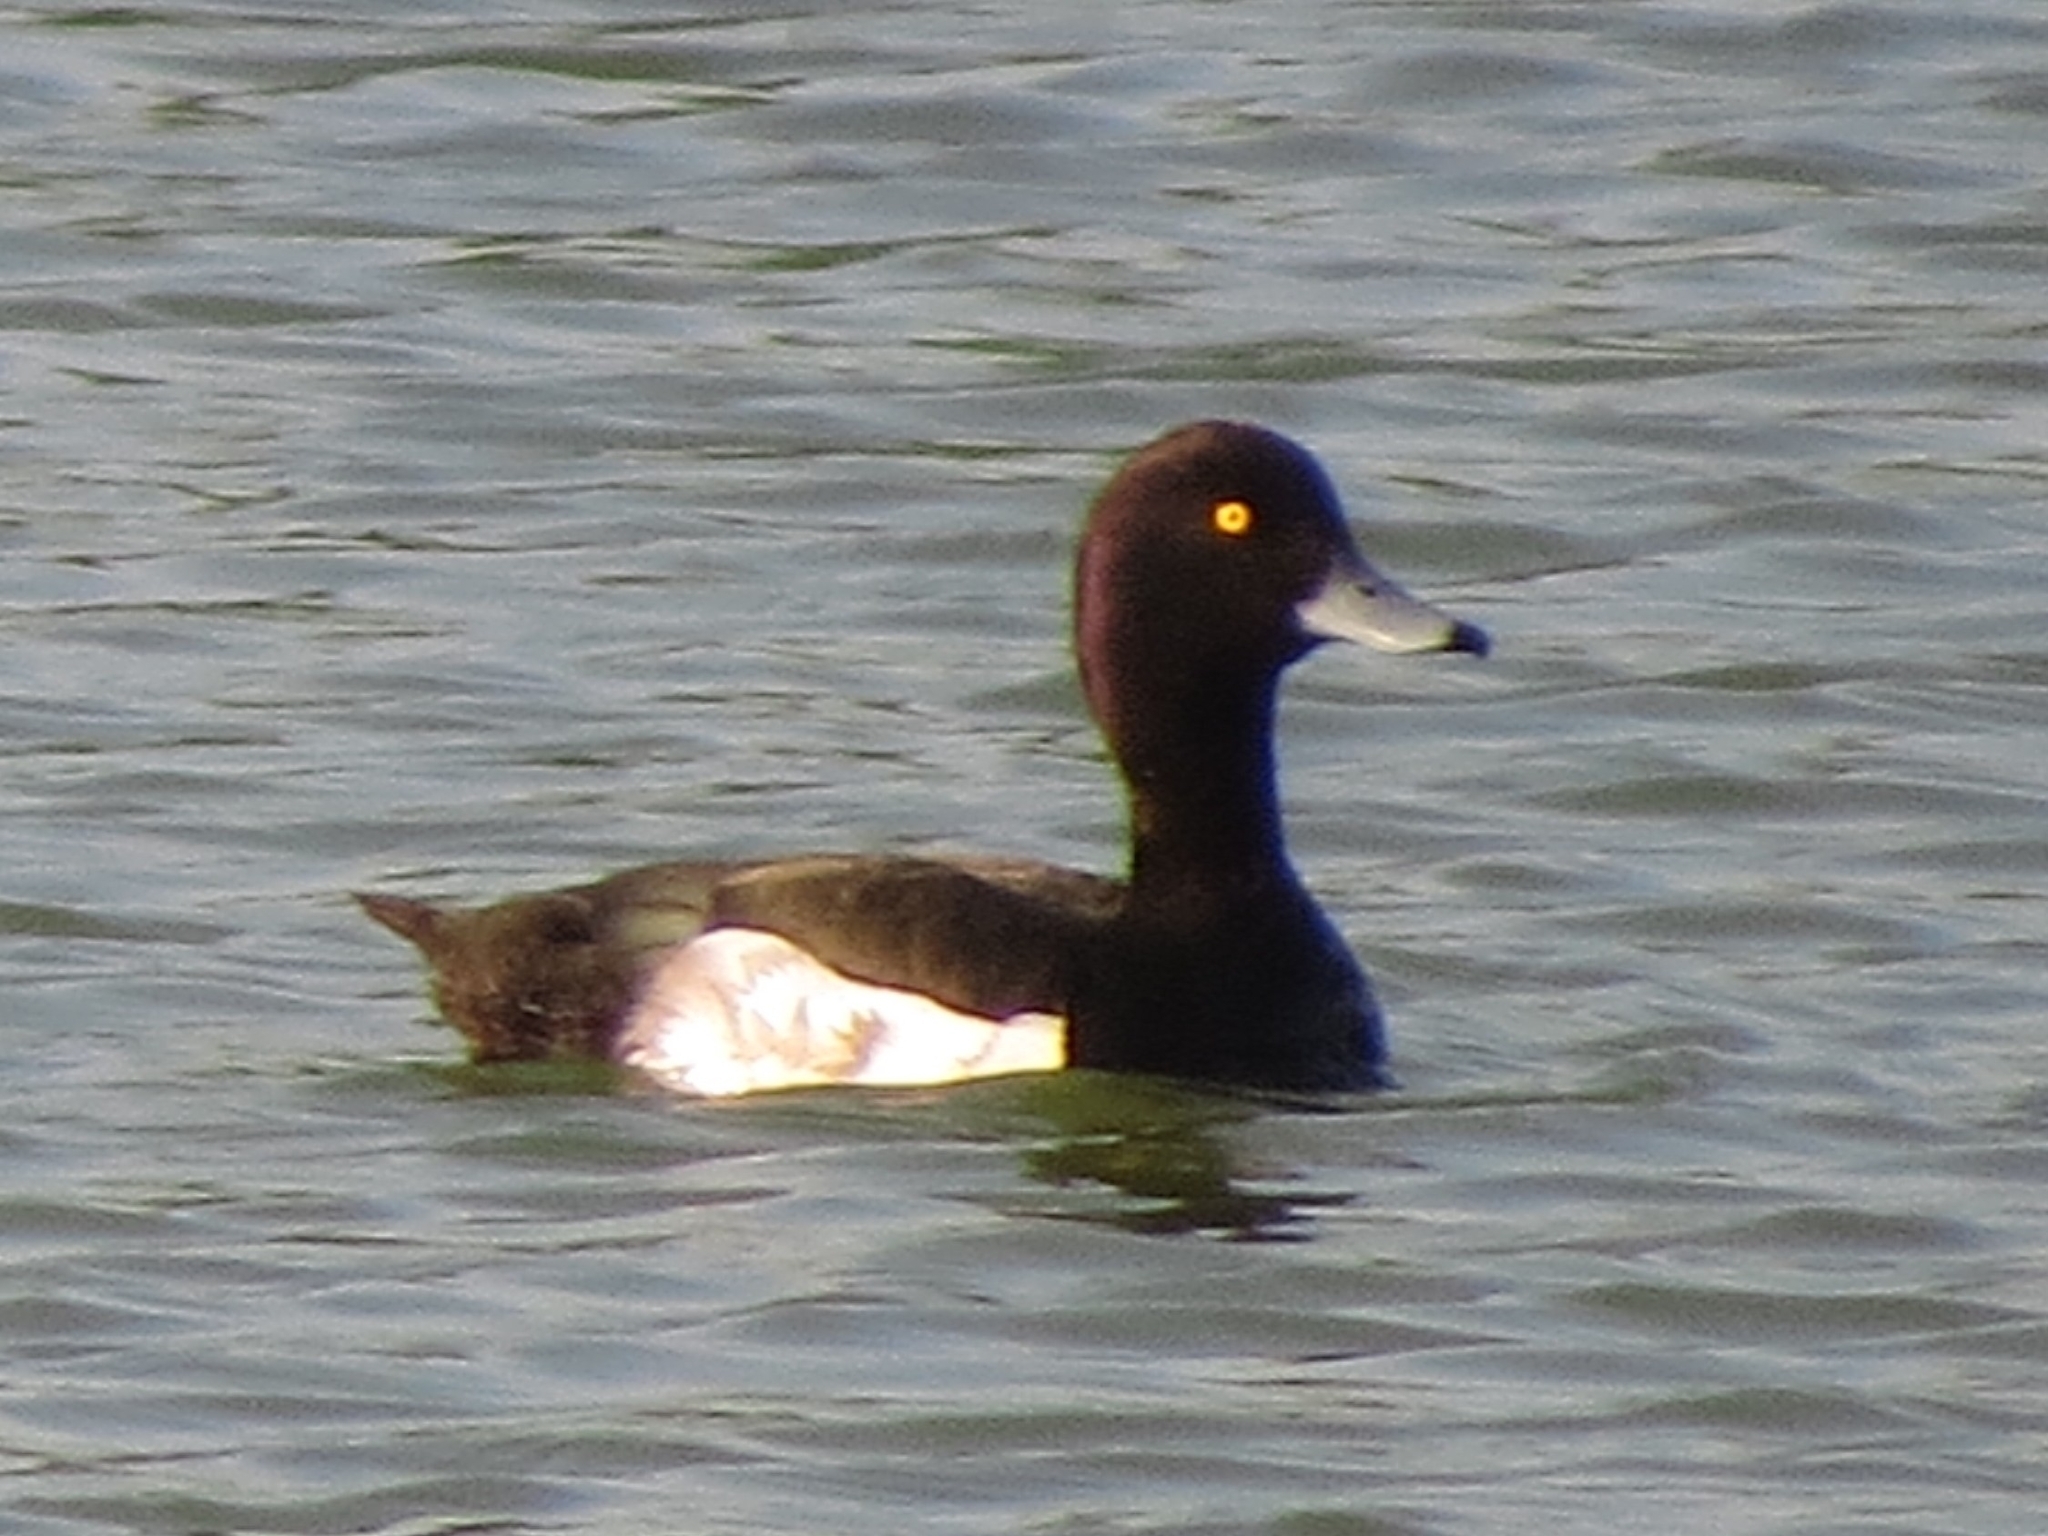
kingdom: Animalia
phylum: Chordata
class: Aves
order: Anseriformes
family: Anatidae
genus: Aythya
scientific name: Aythya fuligula
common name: Tufted duck
